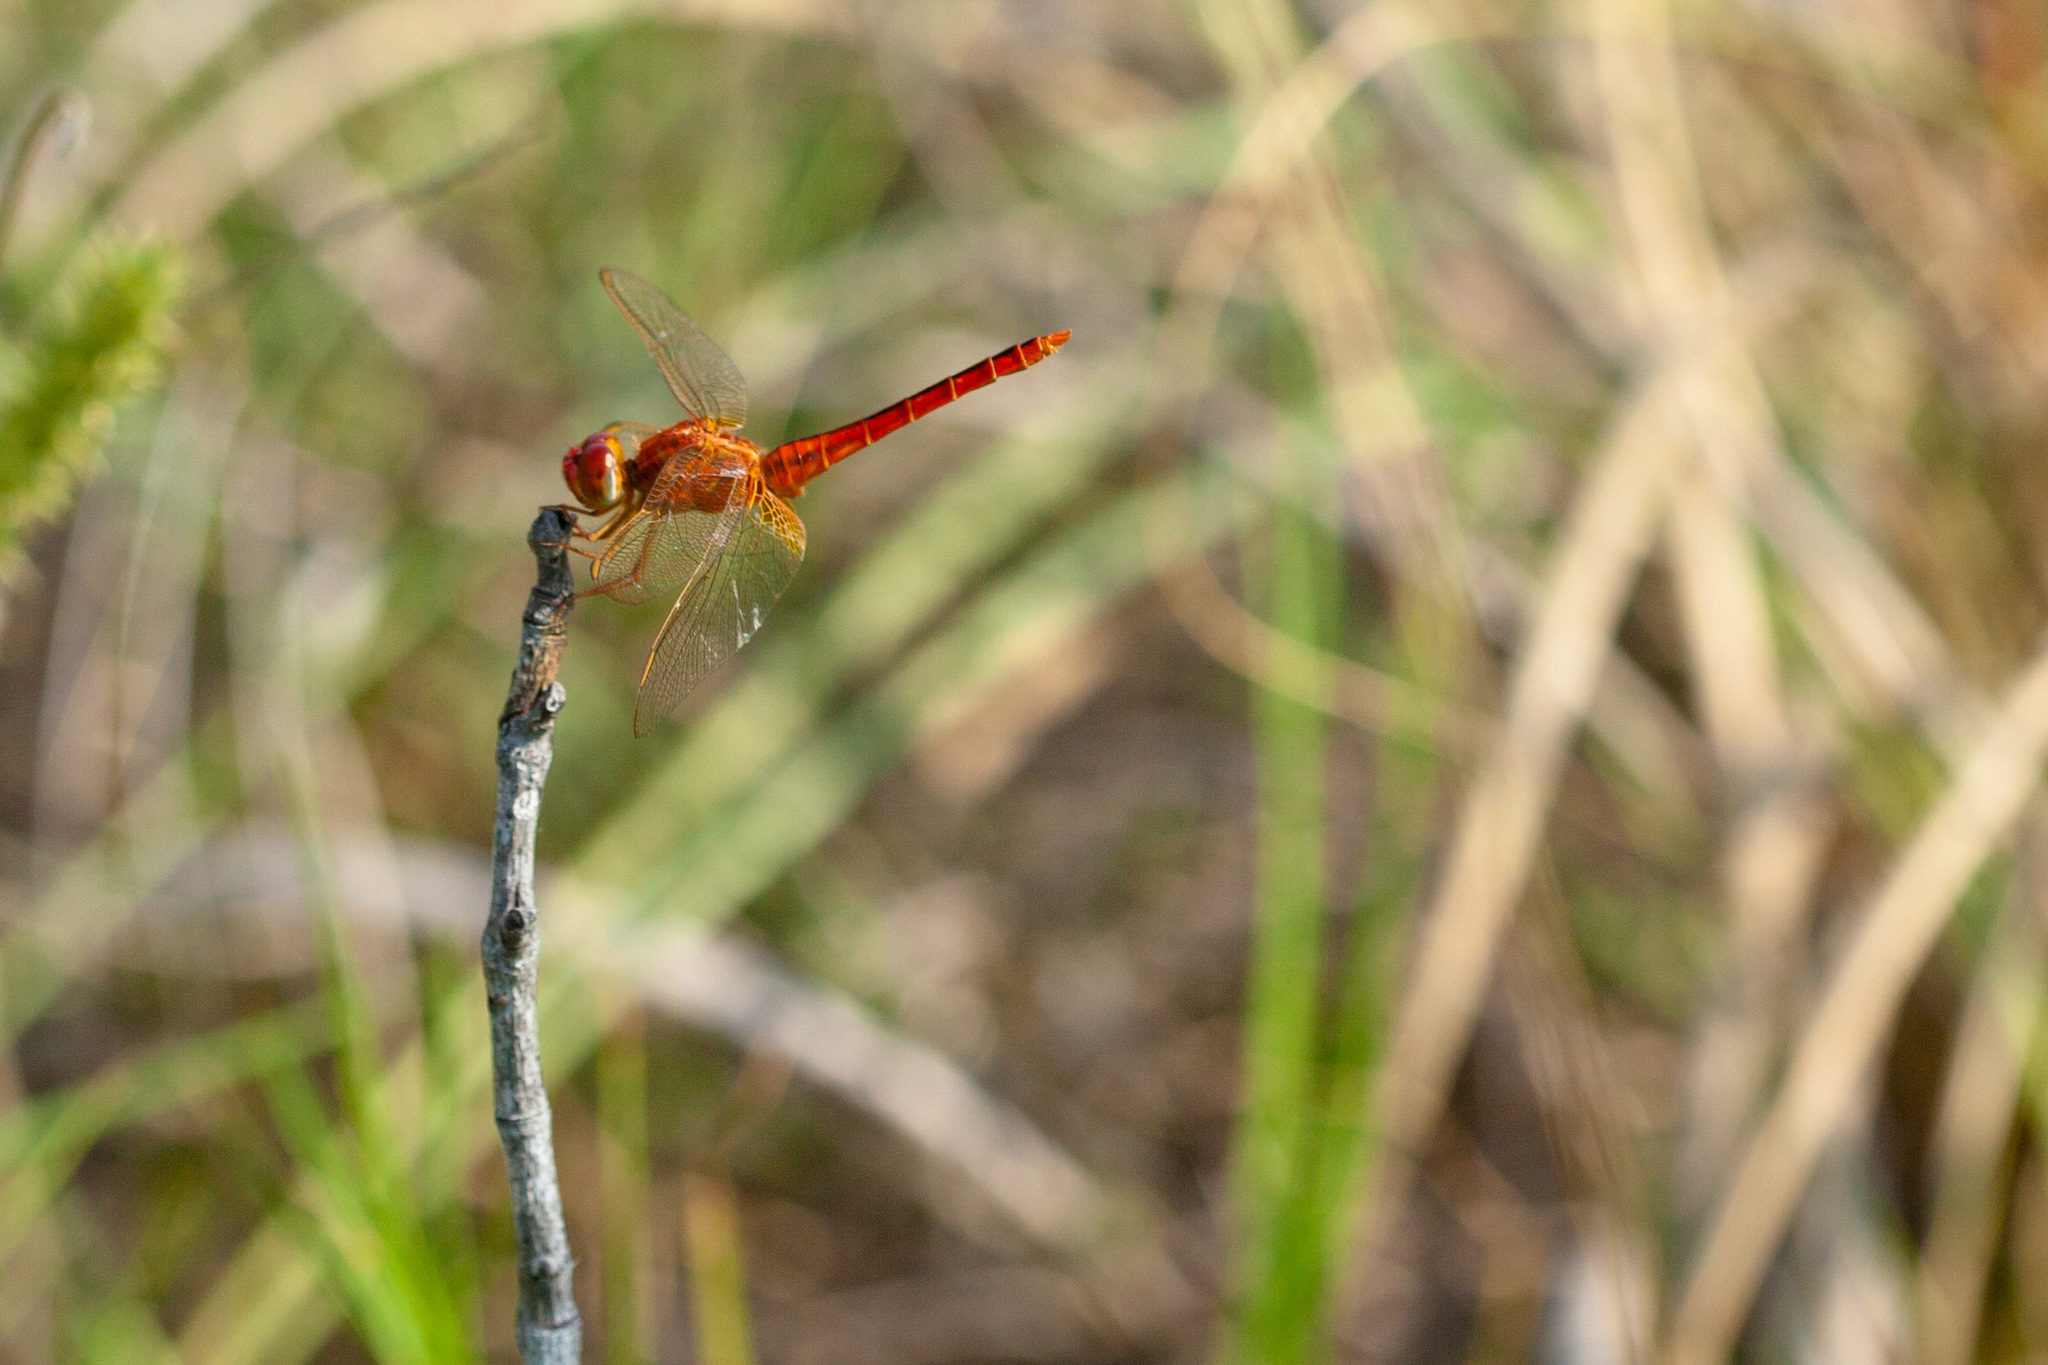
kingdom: Animalia
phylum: Arthropoda
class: Insecta
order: Odonata
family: Libellulidae
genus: Crocothemis
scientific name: Crocothemis servilia
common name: Scarlet skimmer
